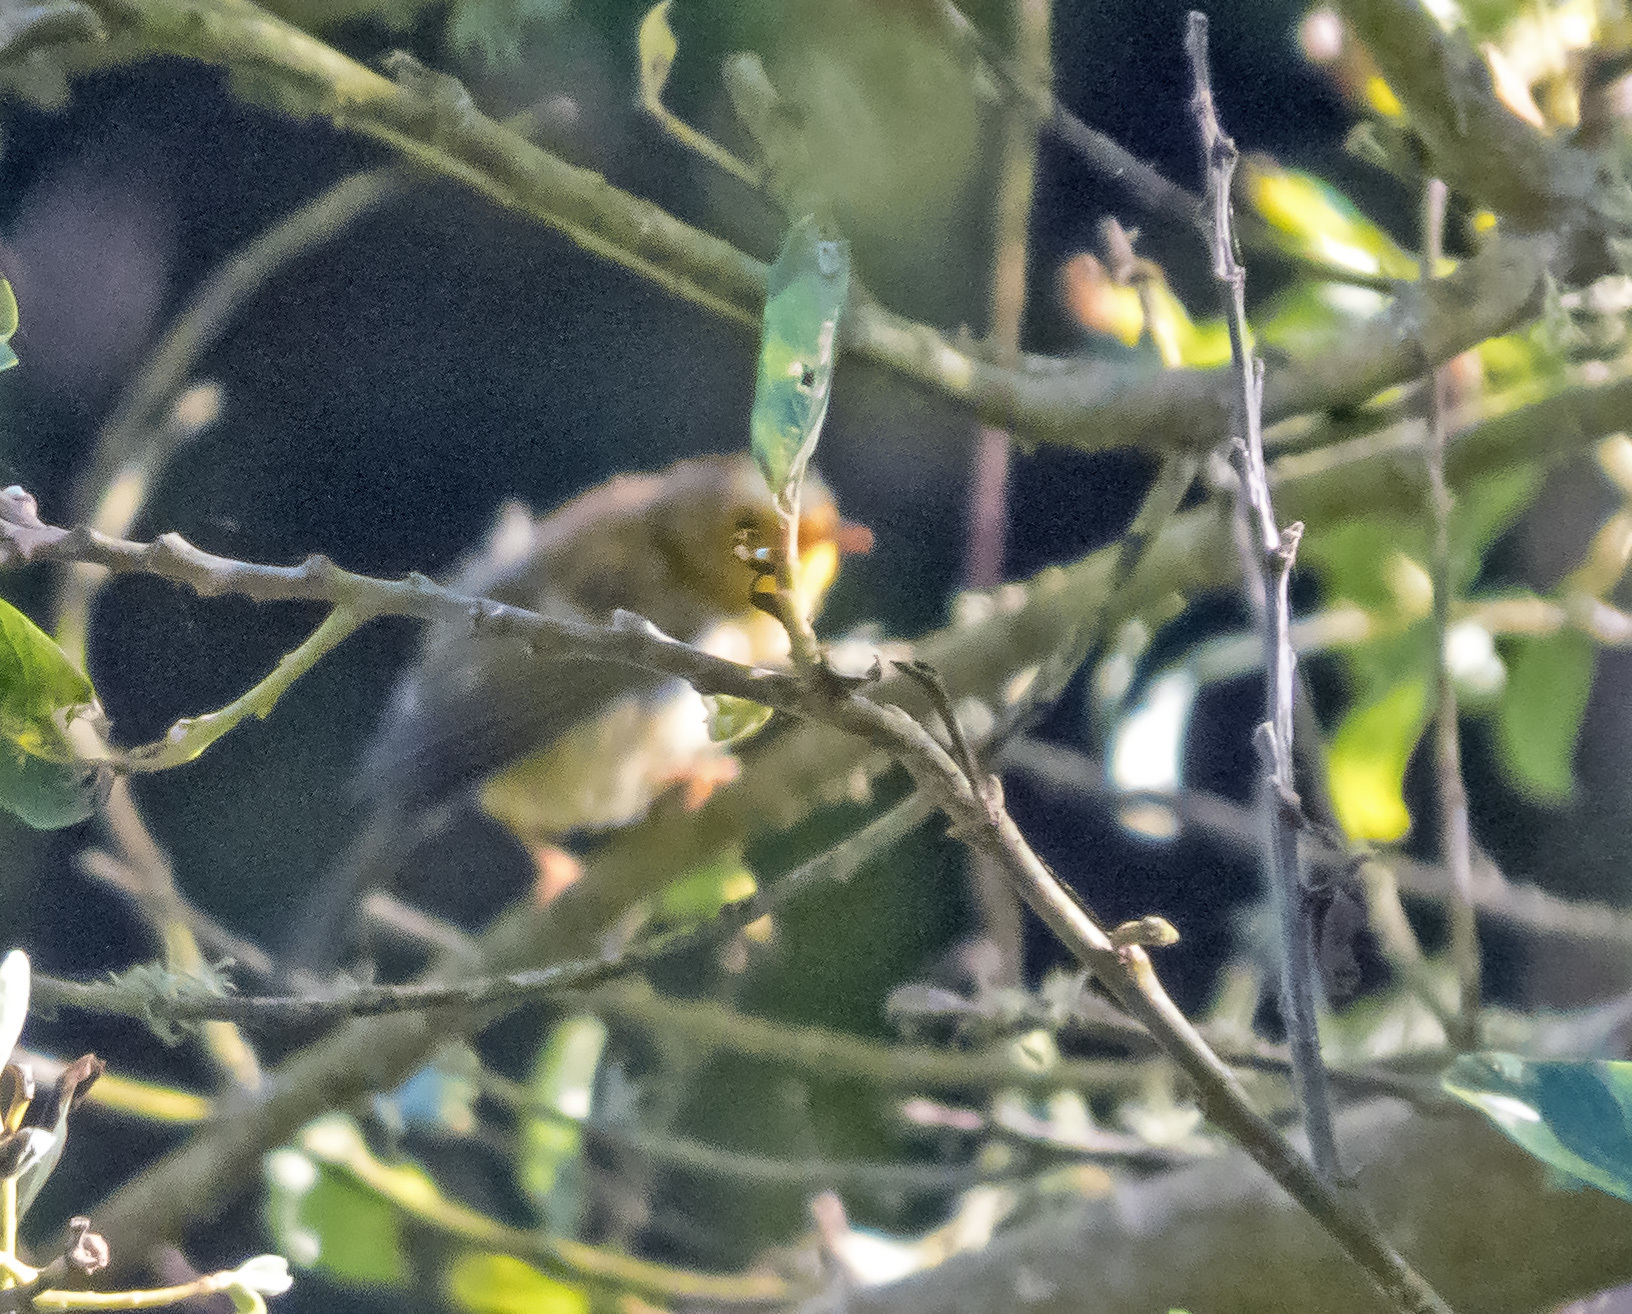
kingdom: Animalia
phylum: Chordata
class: Aves
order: Passeriformes
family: Parulidae
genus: Cardellina
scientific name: Cardellina pusilla
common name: Wilson's warbler
